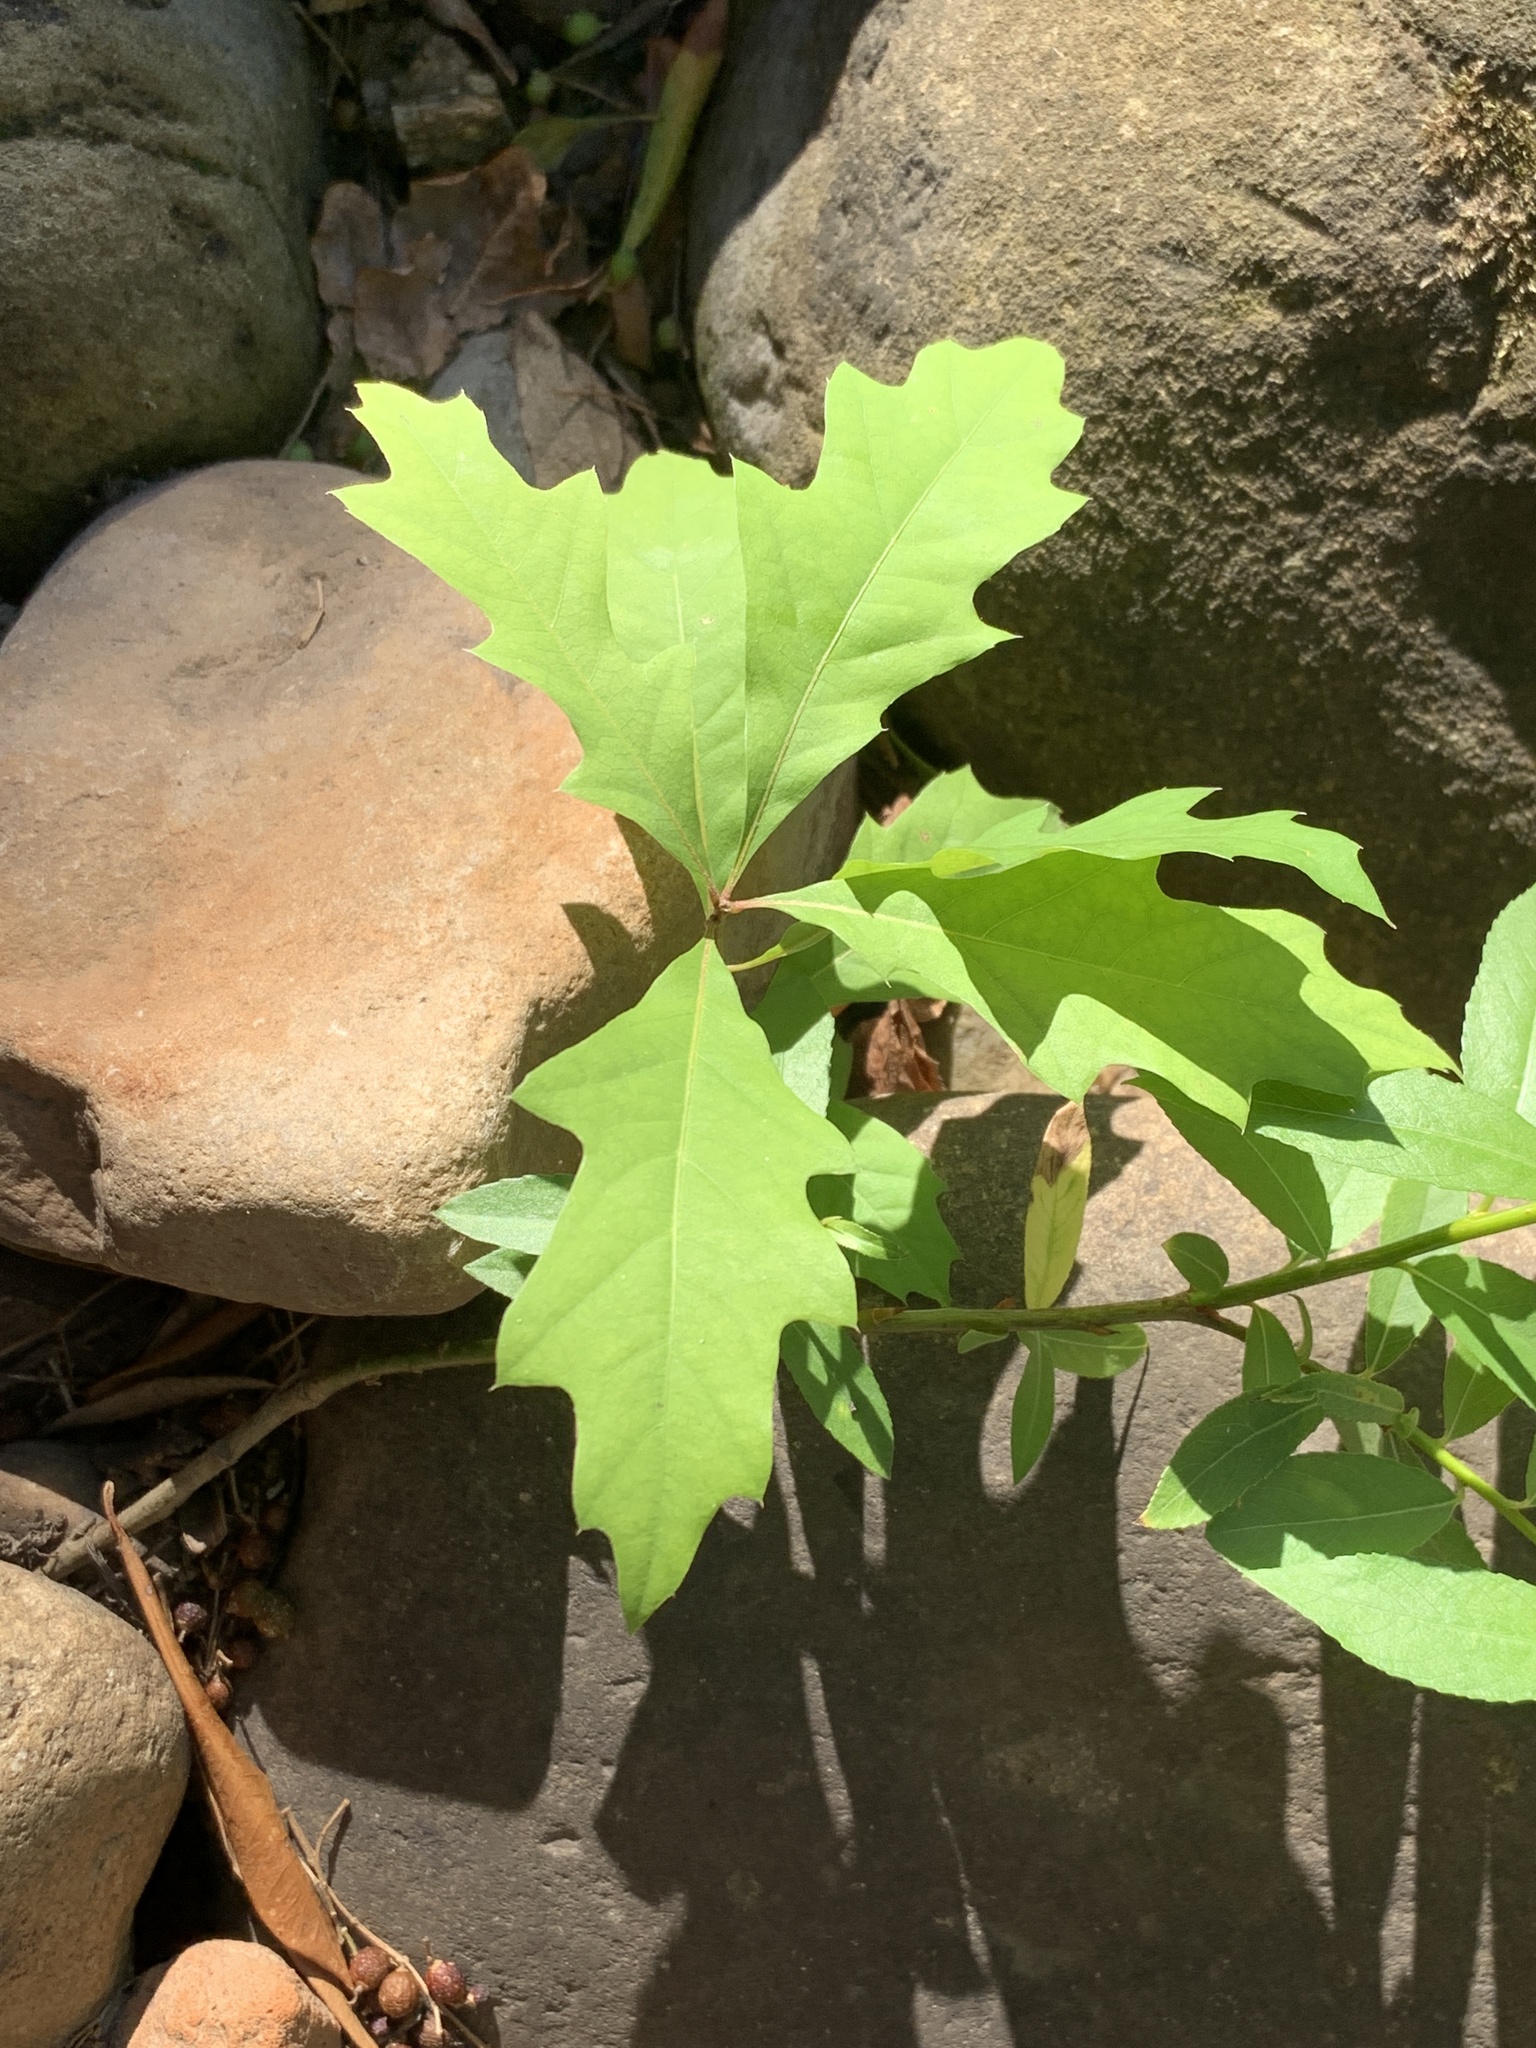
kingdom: Plantae
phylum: Tracheophyta
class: Magnoliopsida
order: Fagales
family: Fagaceae
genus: Quercus
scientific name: Quercus palustris
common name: Pin oak
